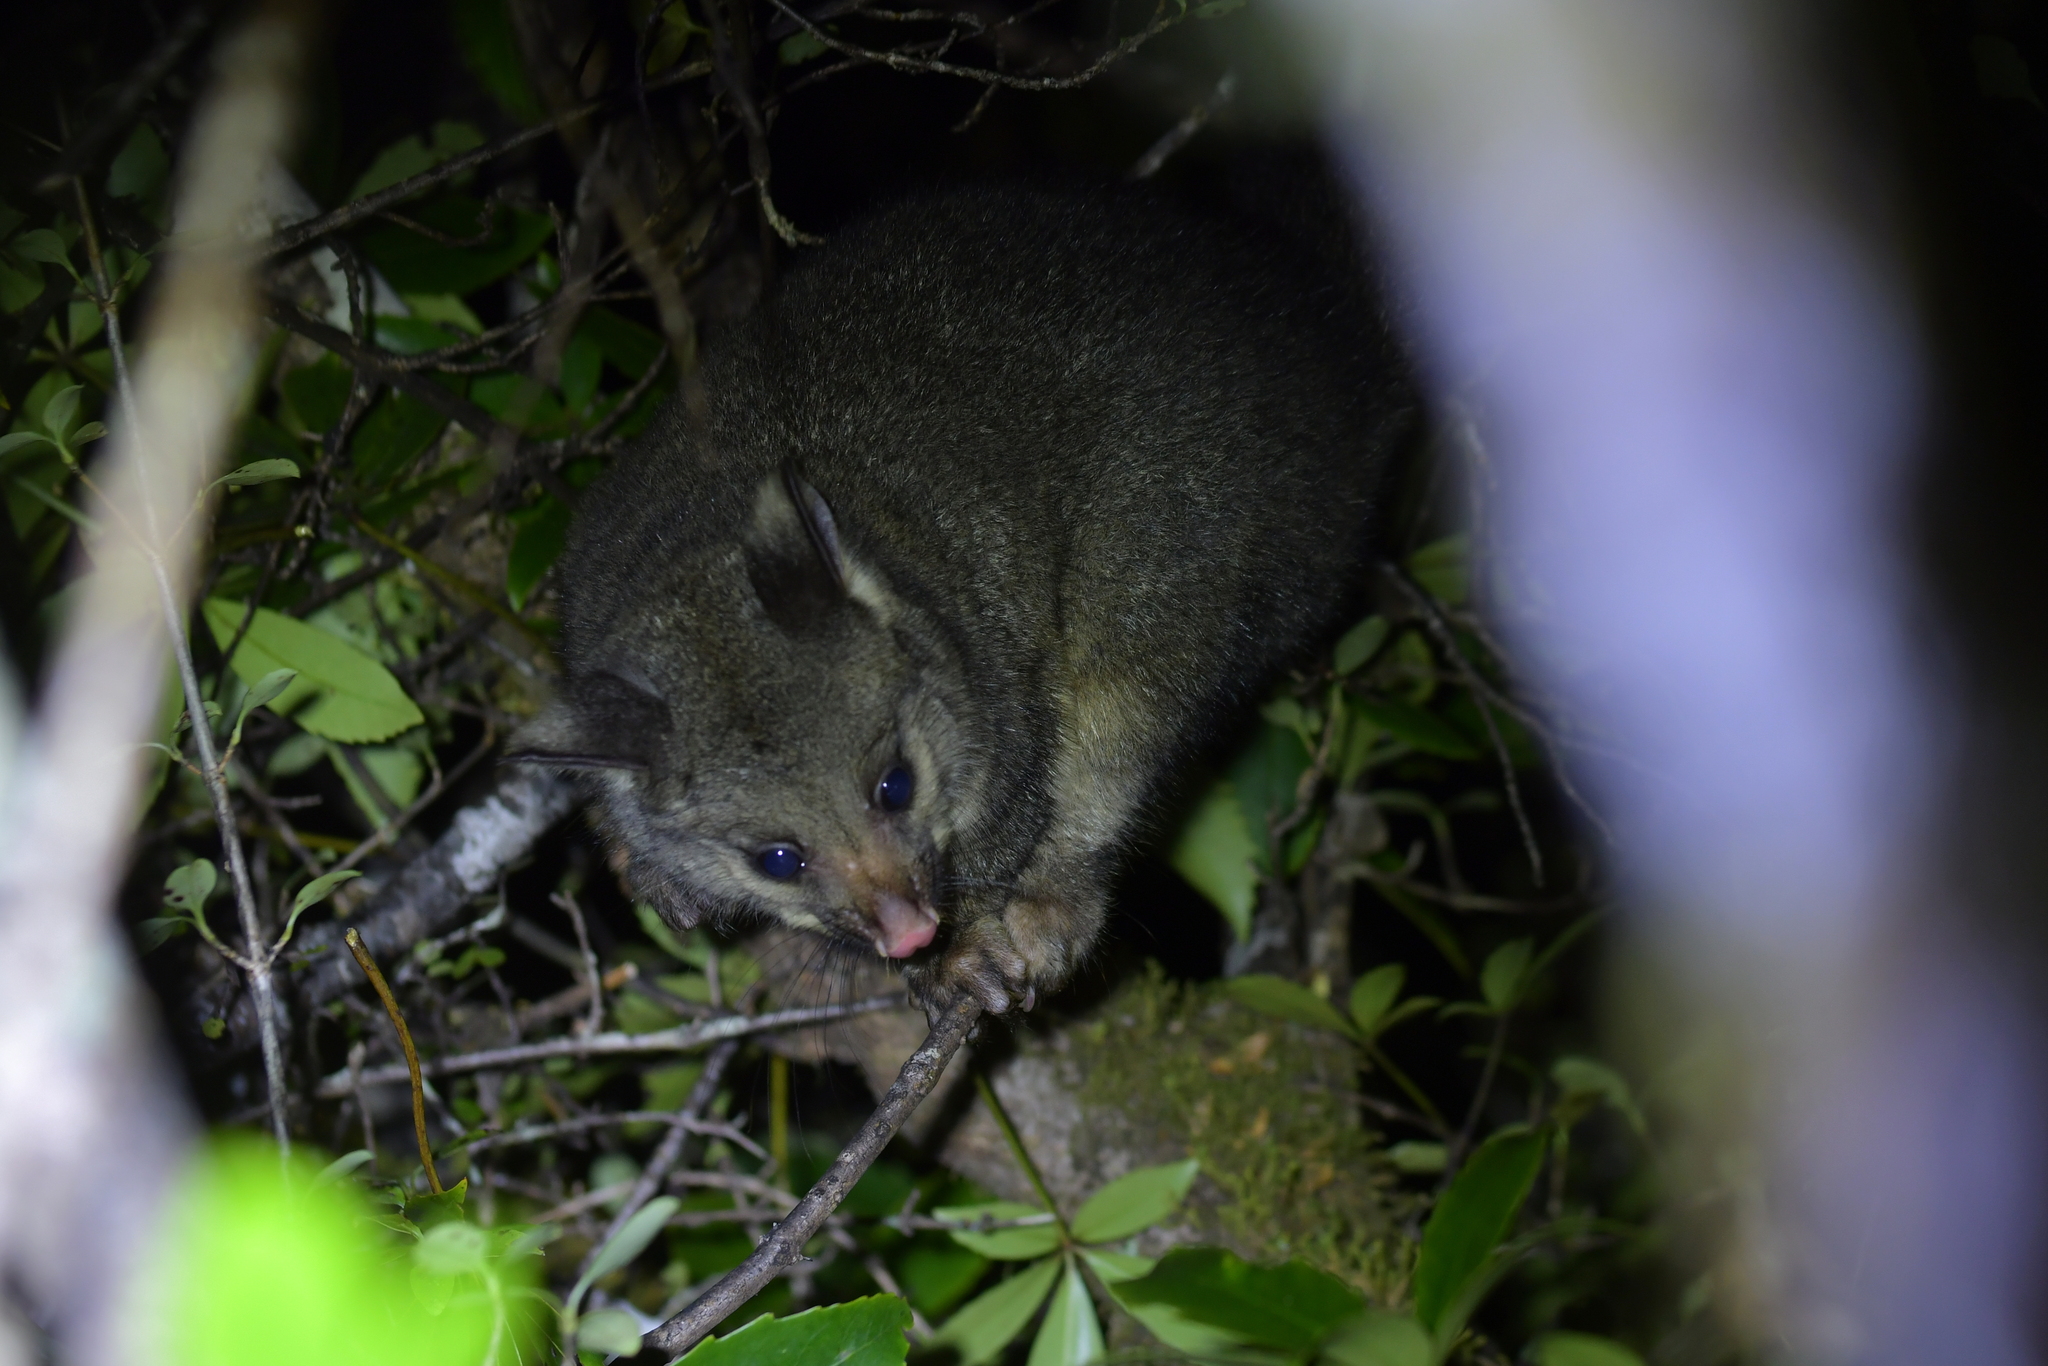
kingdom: Animalia
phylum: Chordata
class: Mammalia
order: Diprotodontia
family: Phalangeridae
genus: Trichosurus
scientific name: Trichosurus vulpecula
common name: Common brushtail
